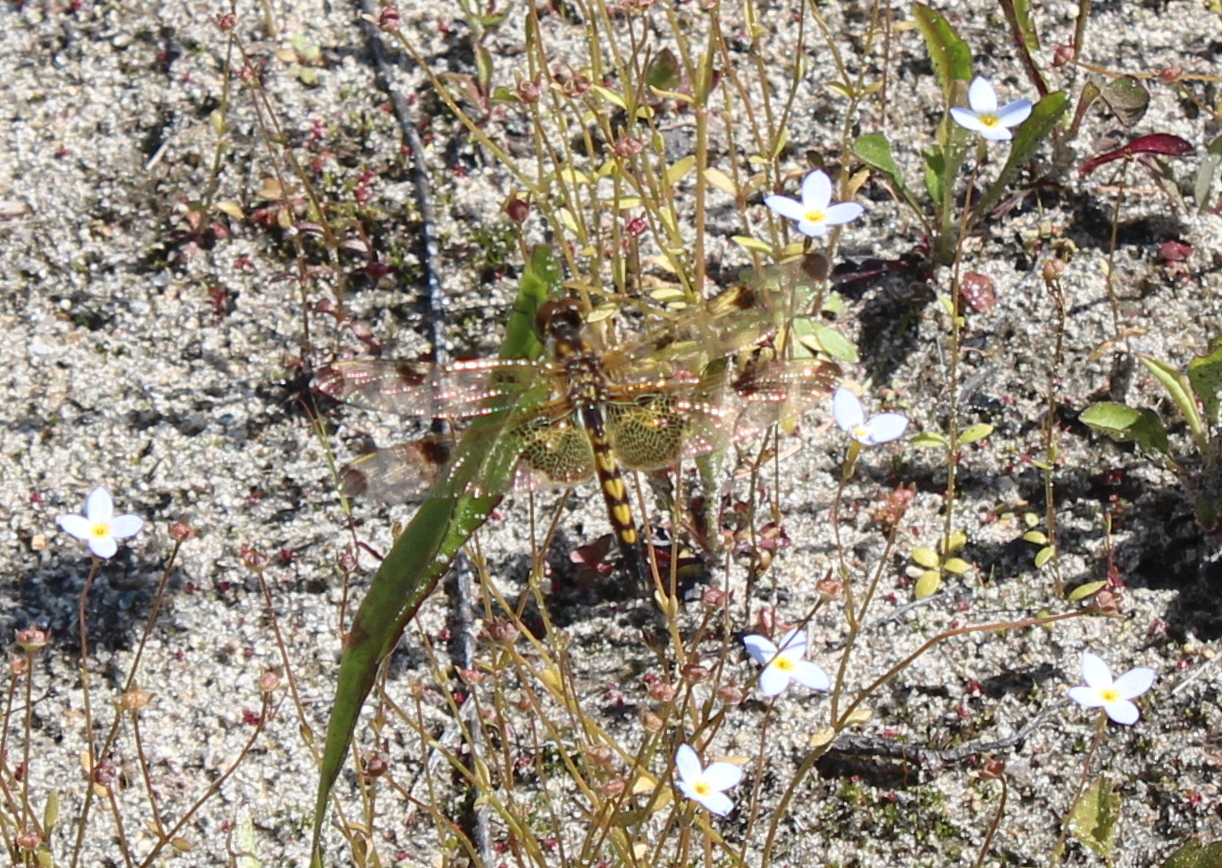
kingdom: Animalia
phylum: Arthropoda
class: Insecta
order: Odonata
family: Libellulidae
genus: Celithemis
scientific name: Celithemis elisa
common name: Calico pennant
